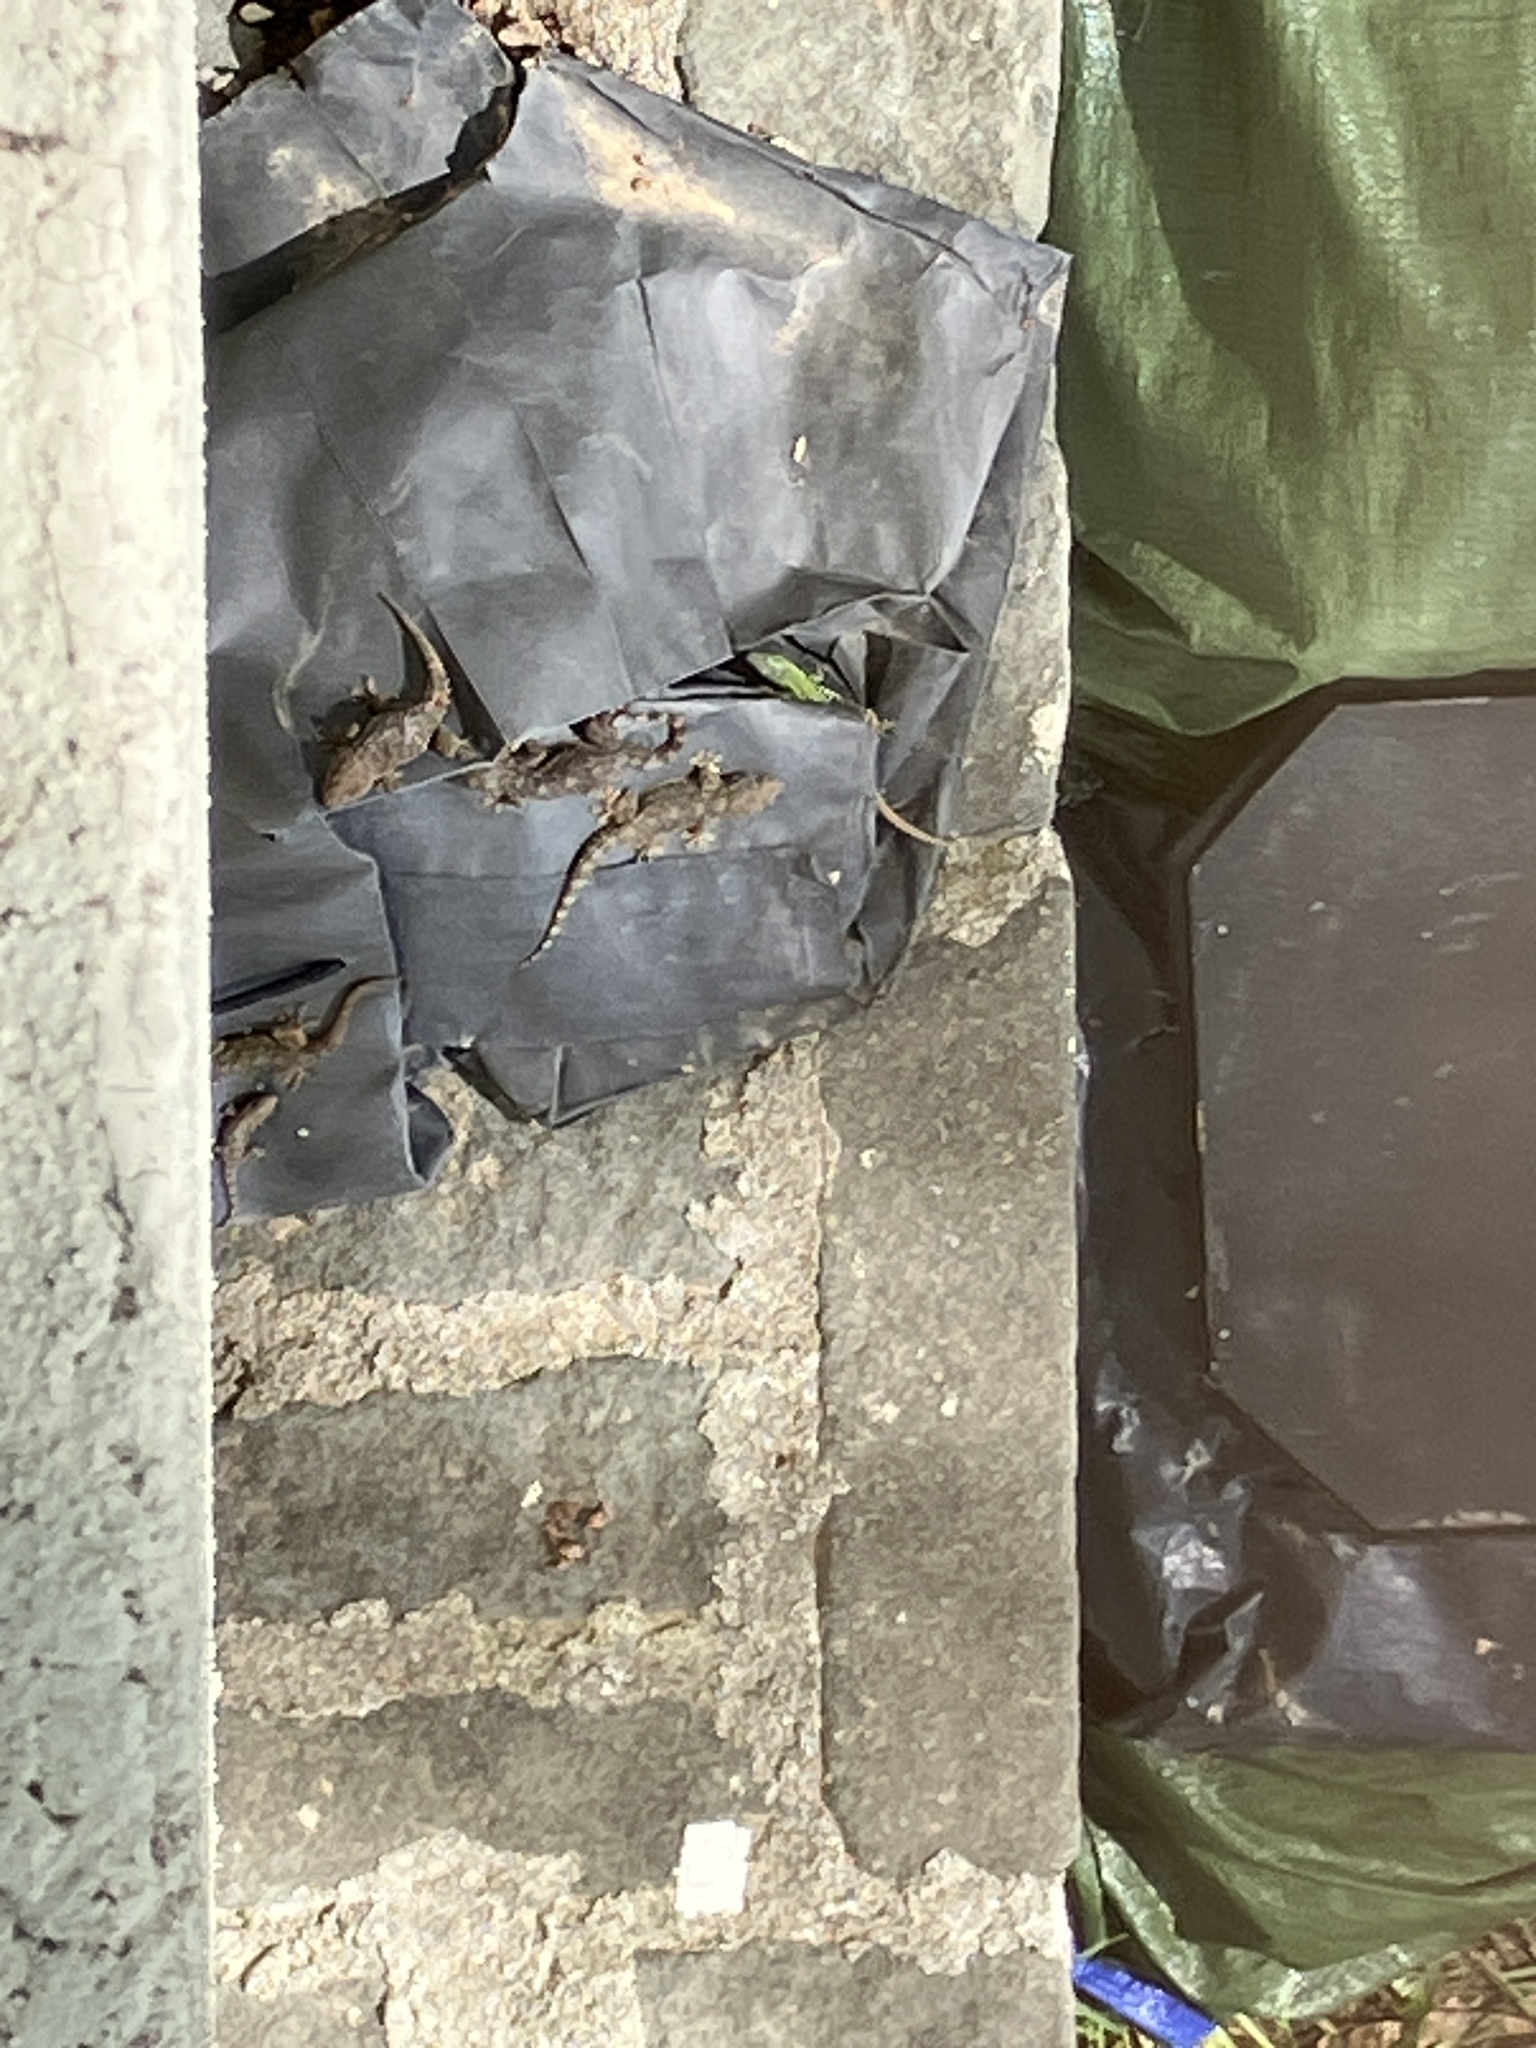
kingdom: Animalia
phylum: Chordata
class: Squamata
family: Phyllodactylidae
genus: Tarentola
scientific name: Tarentola mauritanica
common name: Moorish gecko
